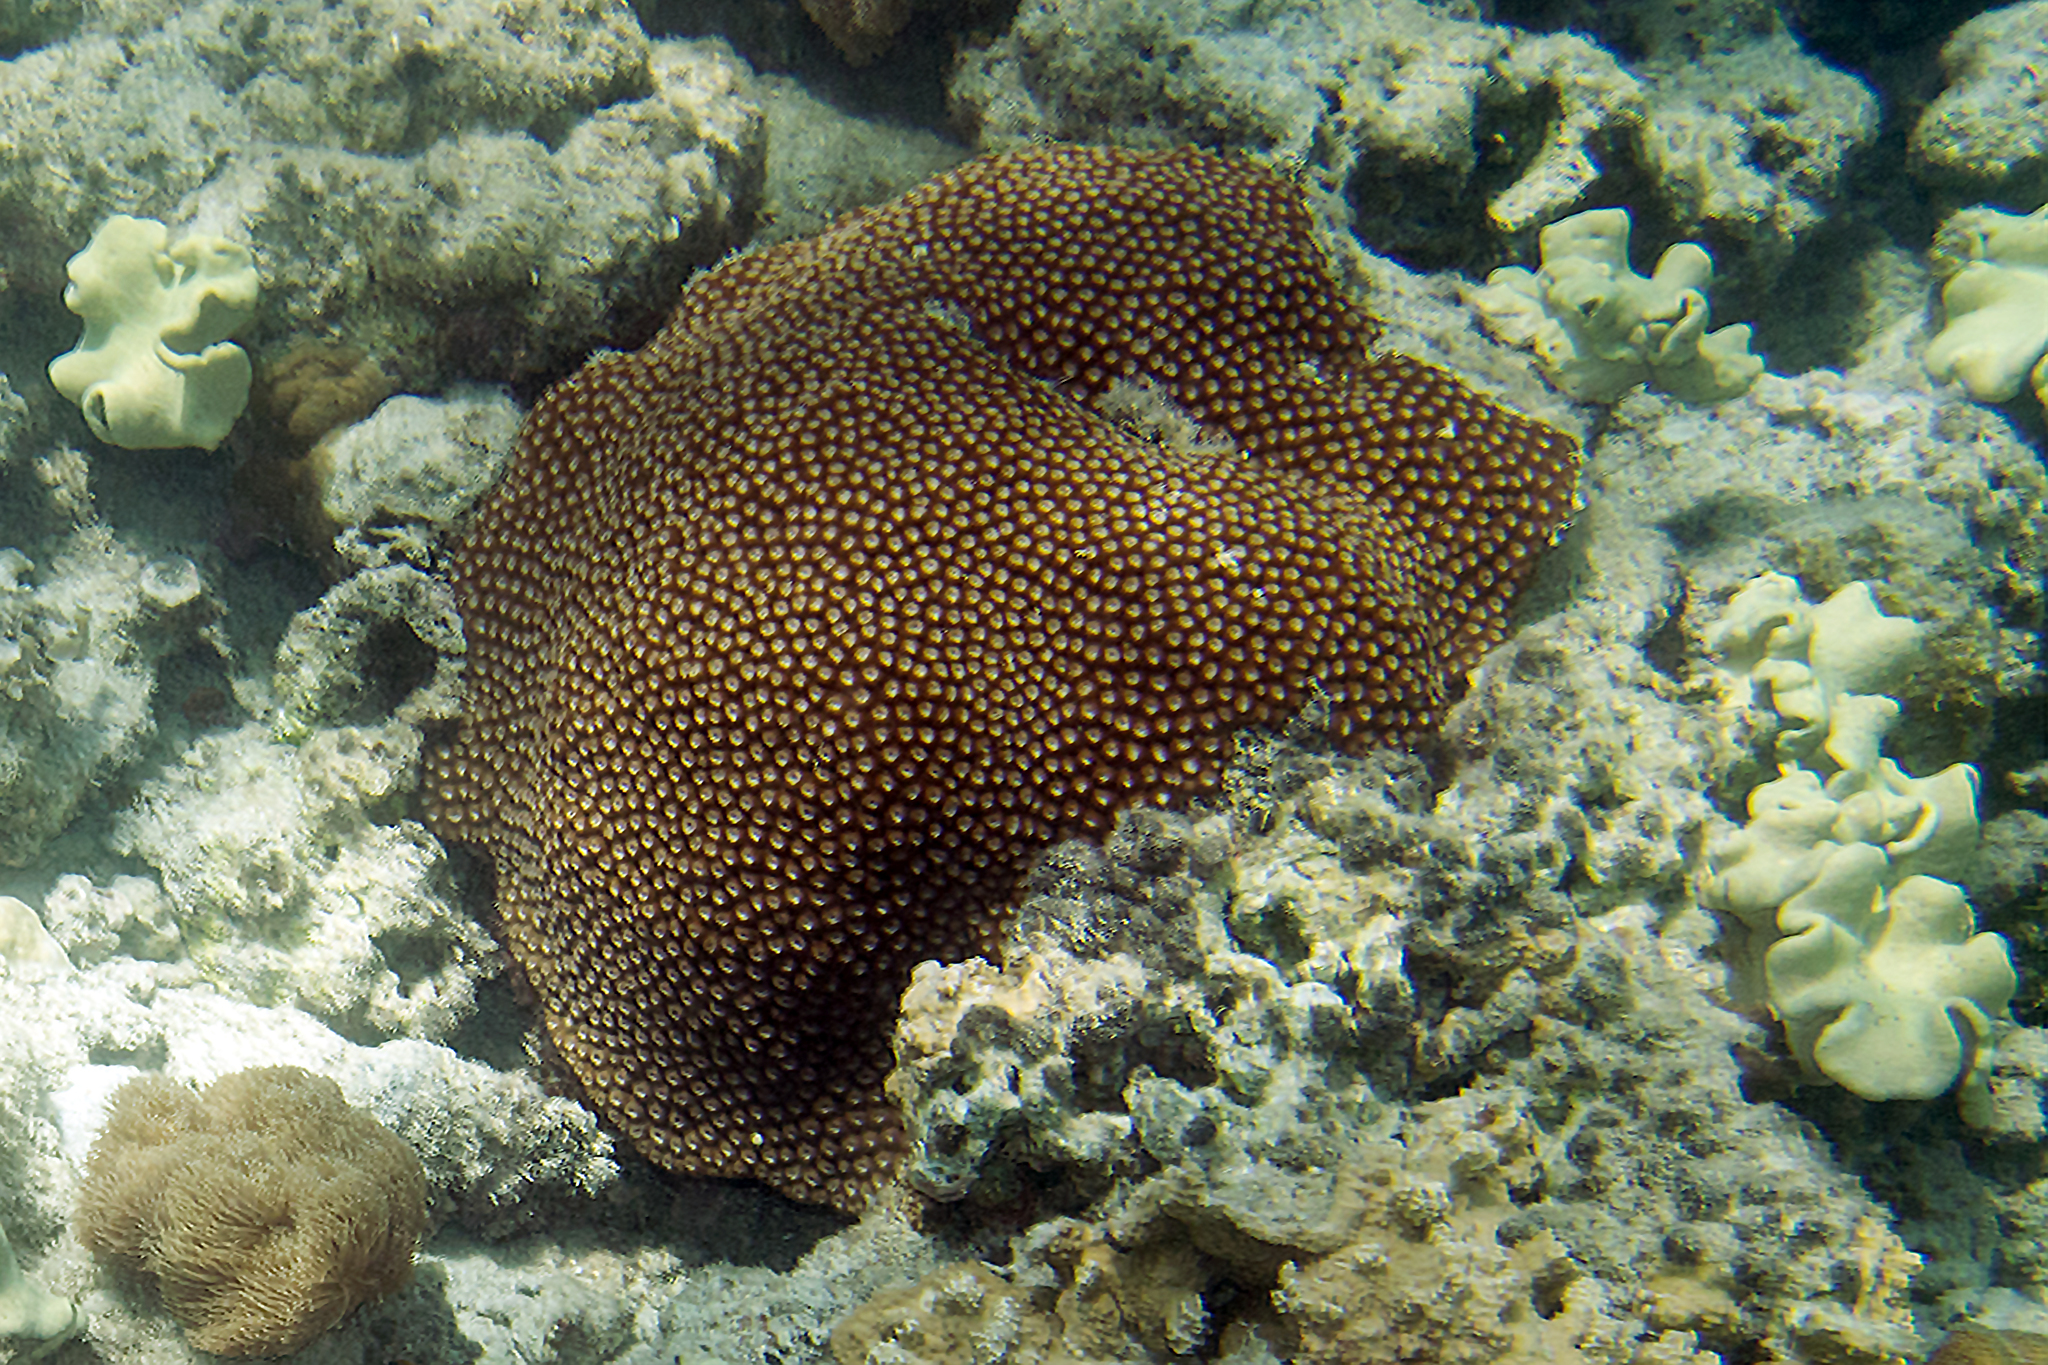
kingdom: Animalia
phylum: Cnidaria
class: Anthozoa
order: Scleractinia
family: Diploastraeidae
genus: Diploastrea
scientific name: Diploastrea heliopora
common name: Double-star coral
